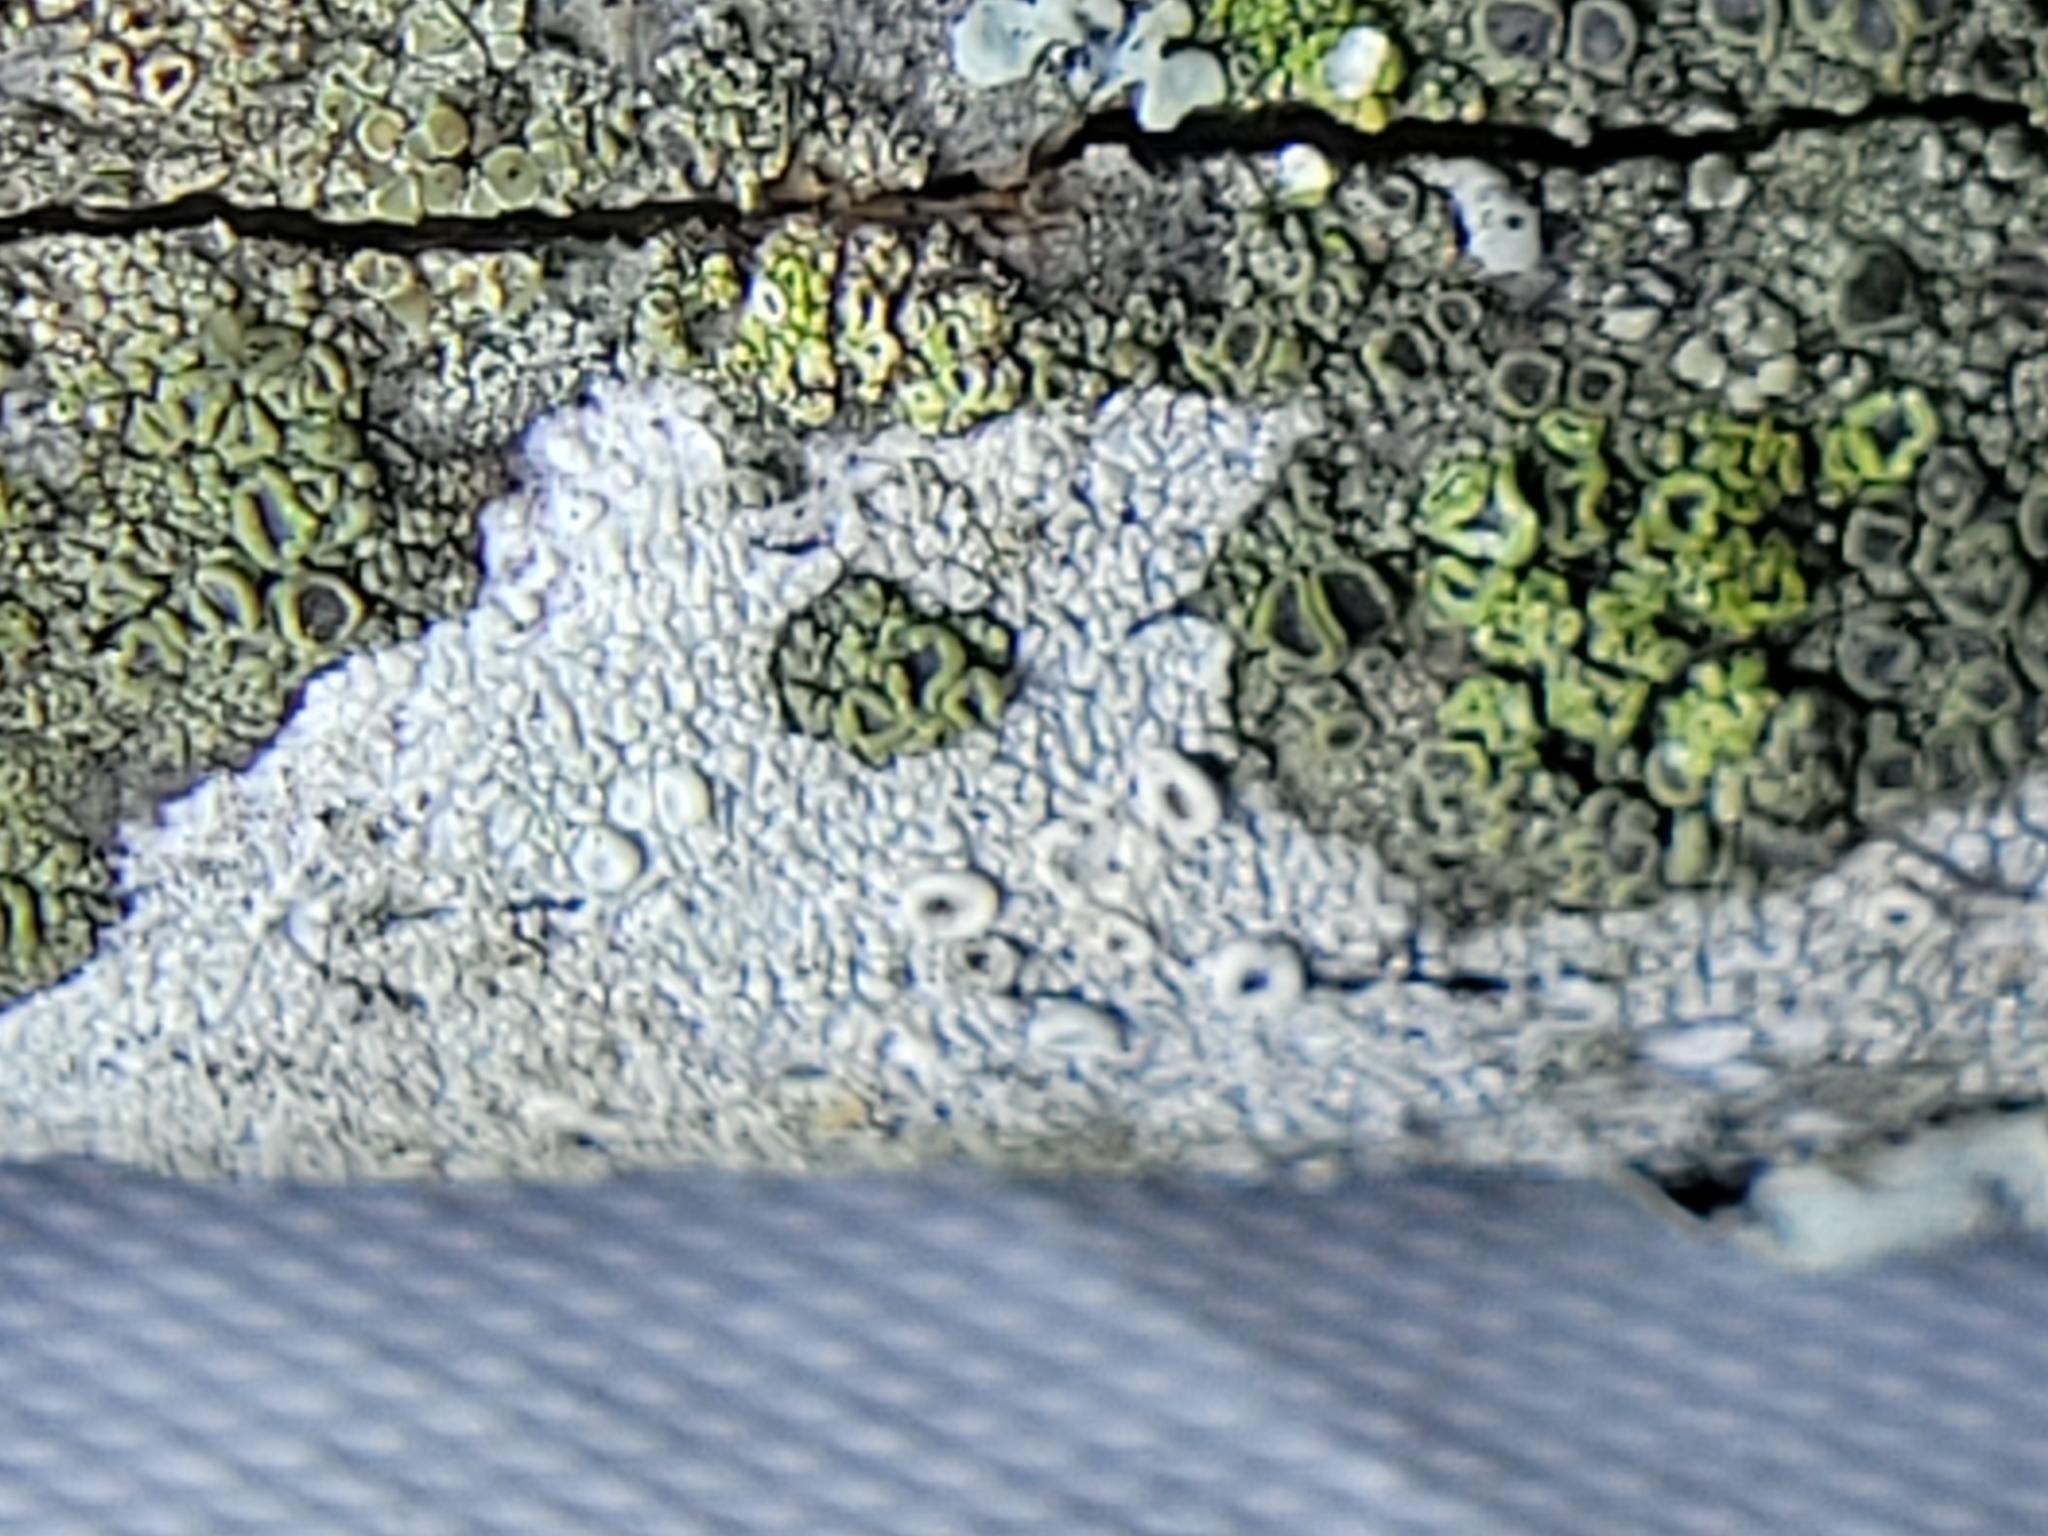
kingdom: Fungi
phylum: Ascomycota
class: Lecanoromycetes
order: Umbilicariales
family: Fuscideaceae
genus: Maronea
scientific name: Maronea polyphaea
